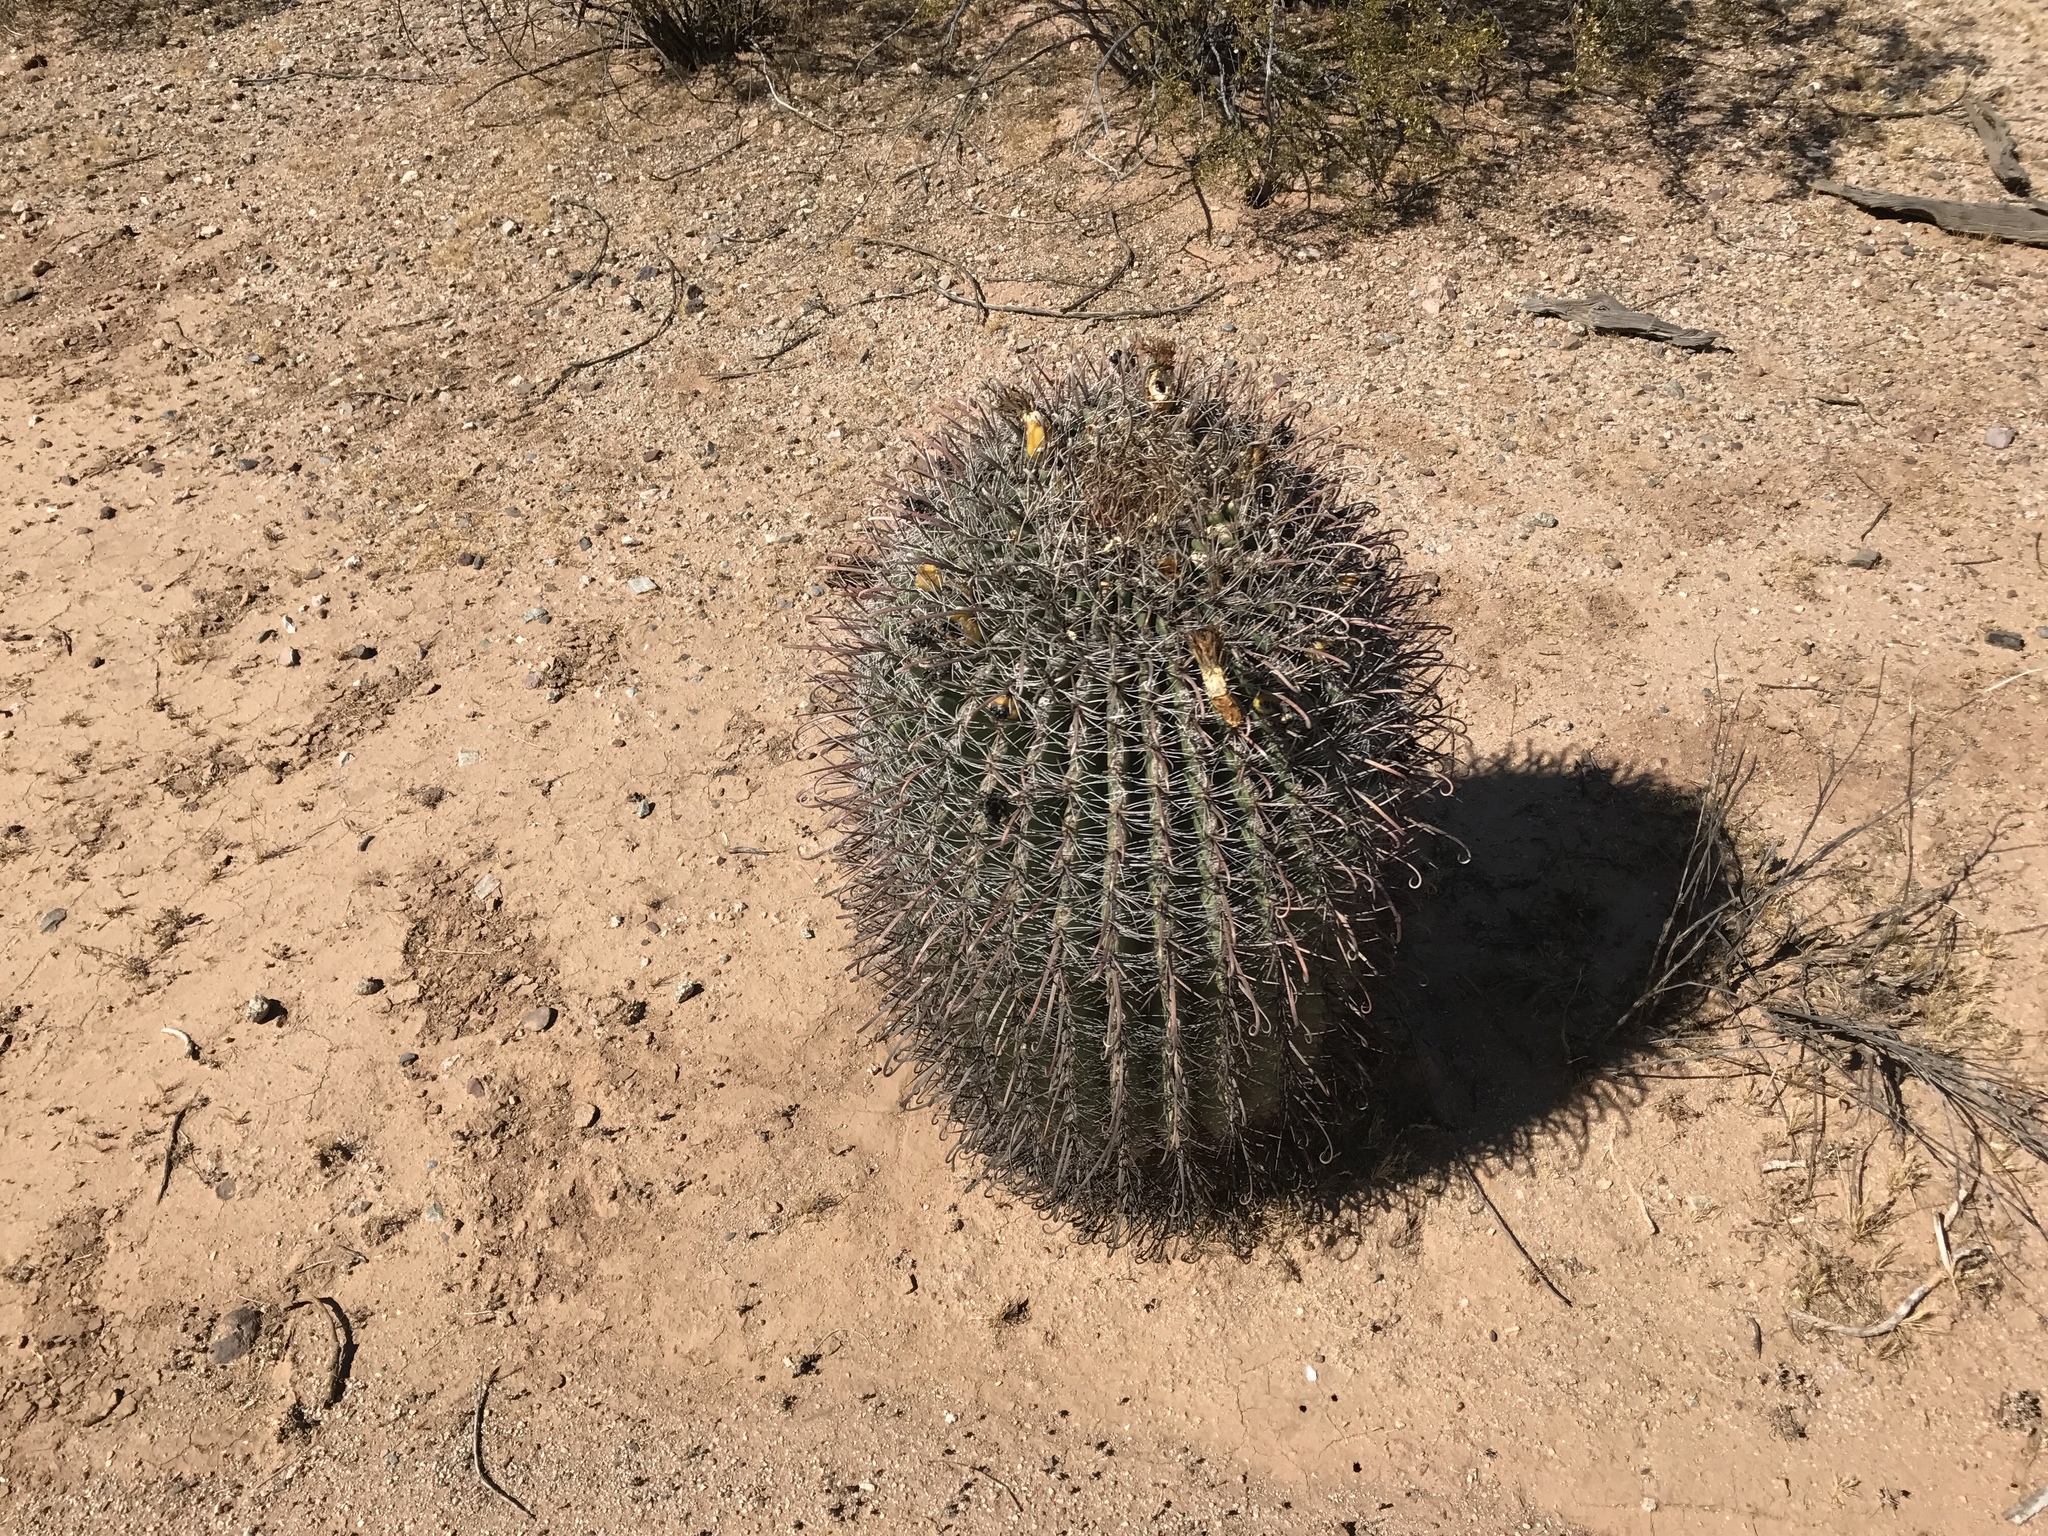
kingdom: Plantae
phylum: Tracheophyta
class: Magnoliopsida
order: Caryophyllales
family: Cactaceae
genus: Ferocactus
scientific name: Ferocactus wislizeni
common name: Candy barrel cactus
